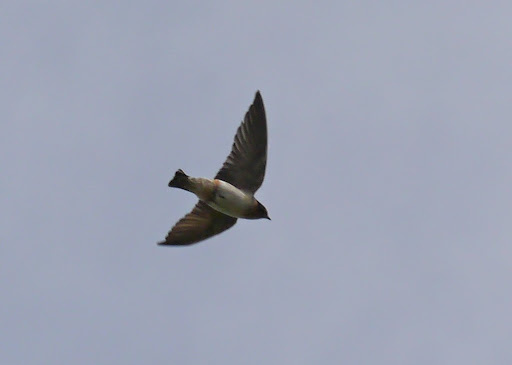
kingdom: Animalia
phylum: Chordata
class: Aves
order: Passeriformes
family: Hirundinidae
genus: Petrochelidon
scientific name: Petrochelidon fulva
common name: Cave swallow
